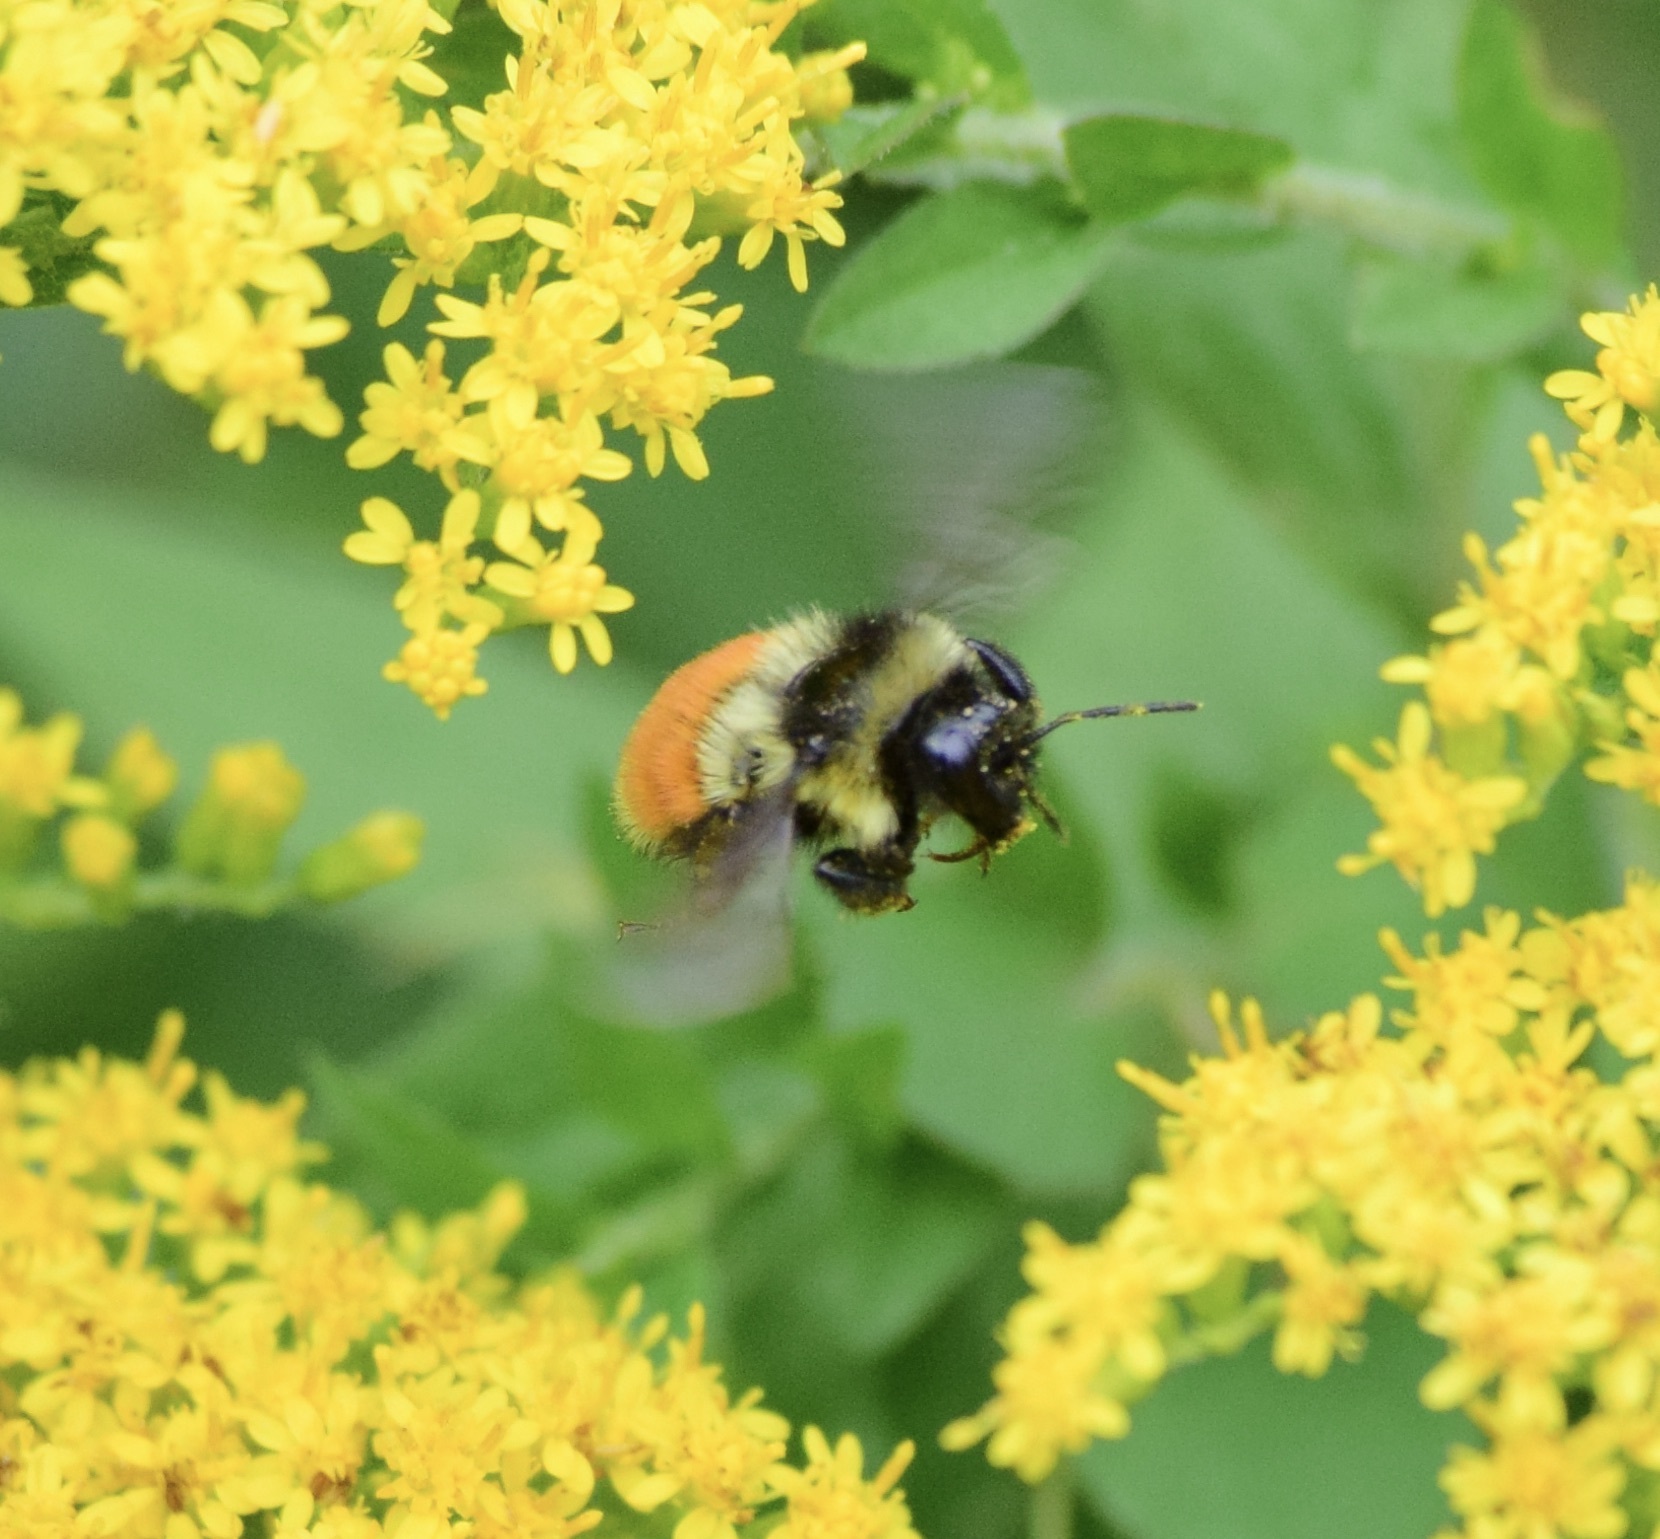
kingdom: Animalia
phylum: Arthropoda
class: Insecta
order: Hymenoptera
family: Apidae
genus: Bombus
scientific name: Bombus ternarius
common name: Tri-colored bumble bee
